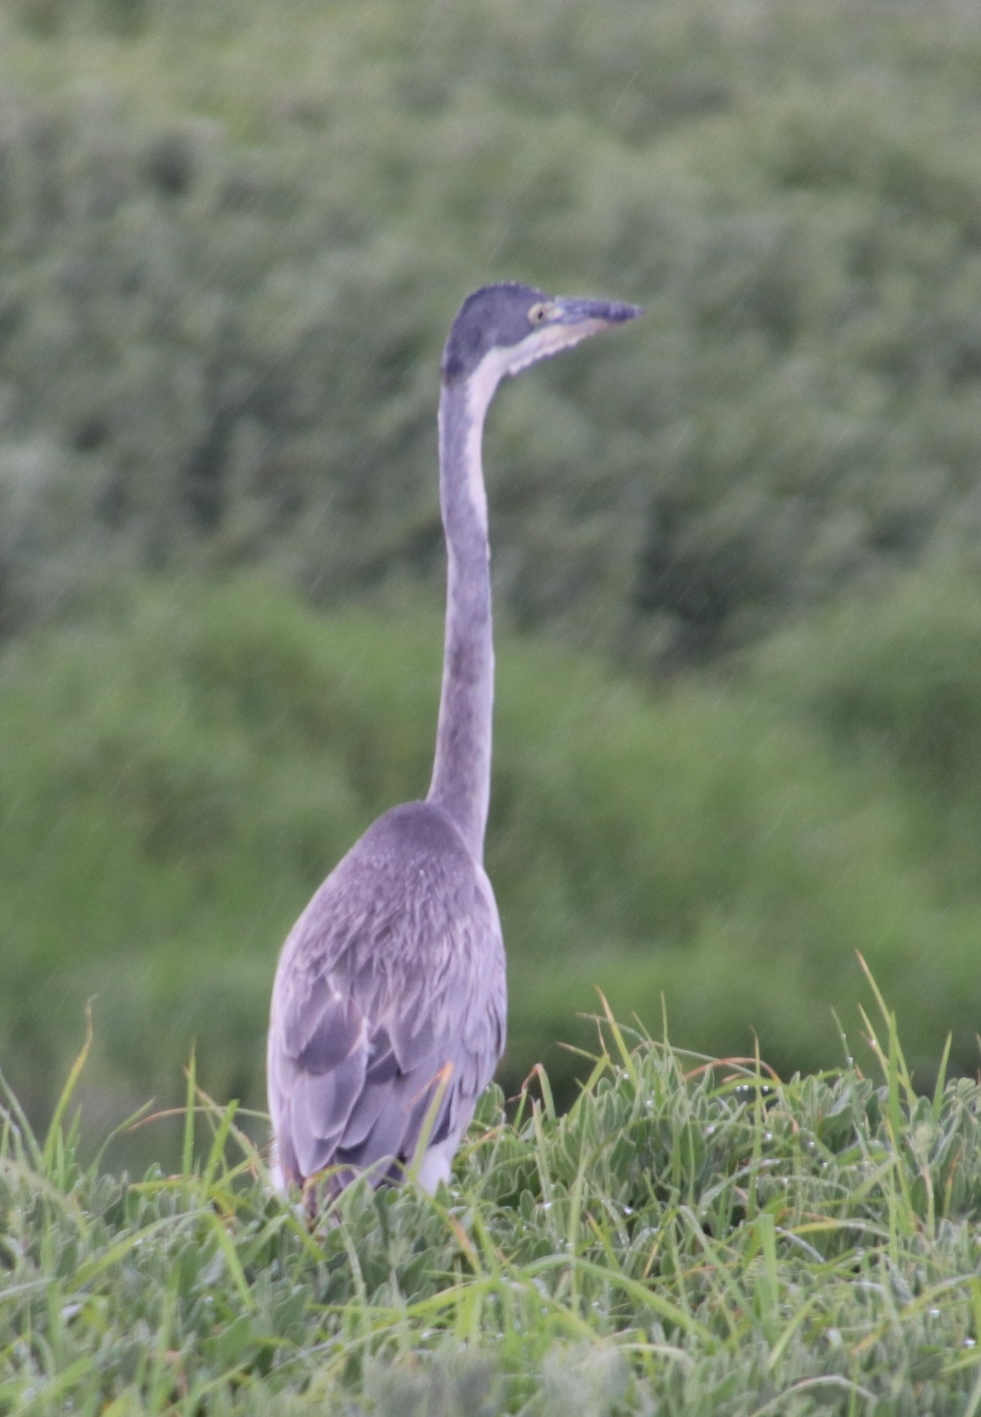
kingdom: Animalia
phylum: Chordata
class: Aves
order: Pelecaniformes
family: Ardeidae
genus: Ardea
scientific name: Ardea melanocephala
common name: Black-headed heron
